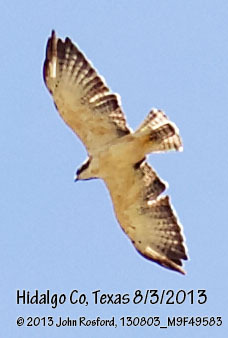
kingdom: Animalia
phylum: Chordata
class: Aves
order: Accipitriformes
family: Accipitridae
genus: Buteo
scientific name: Buteo brachyurus
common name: Short-tailed hawk
